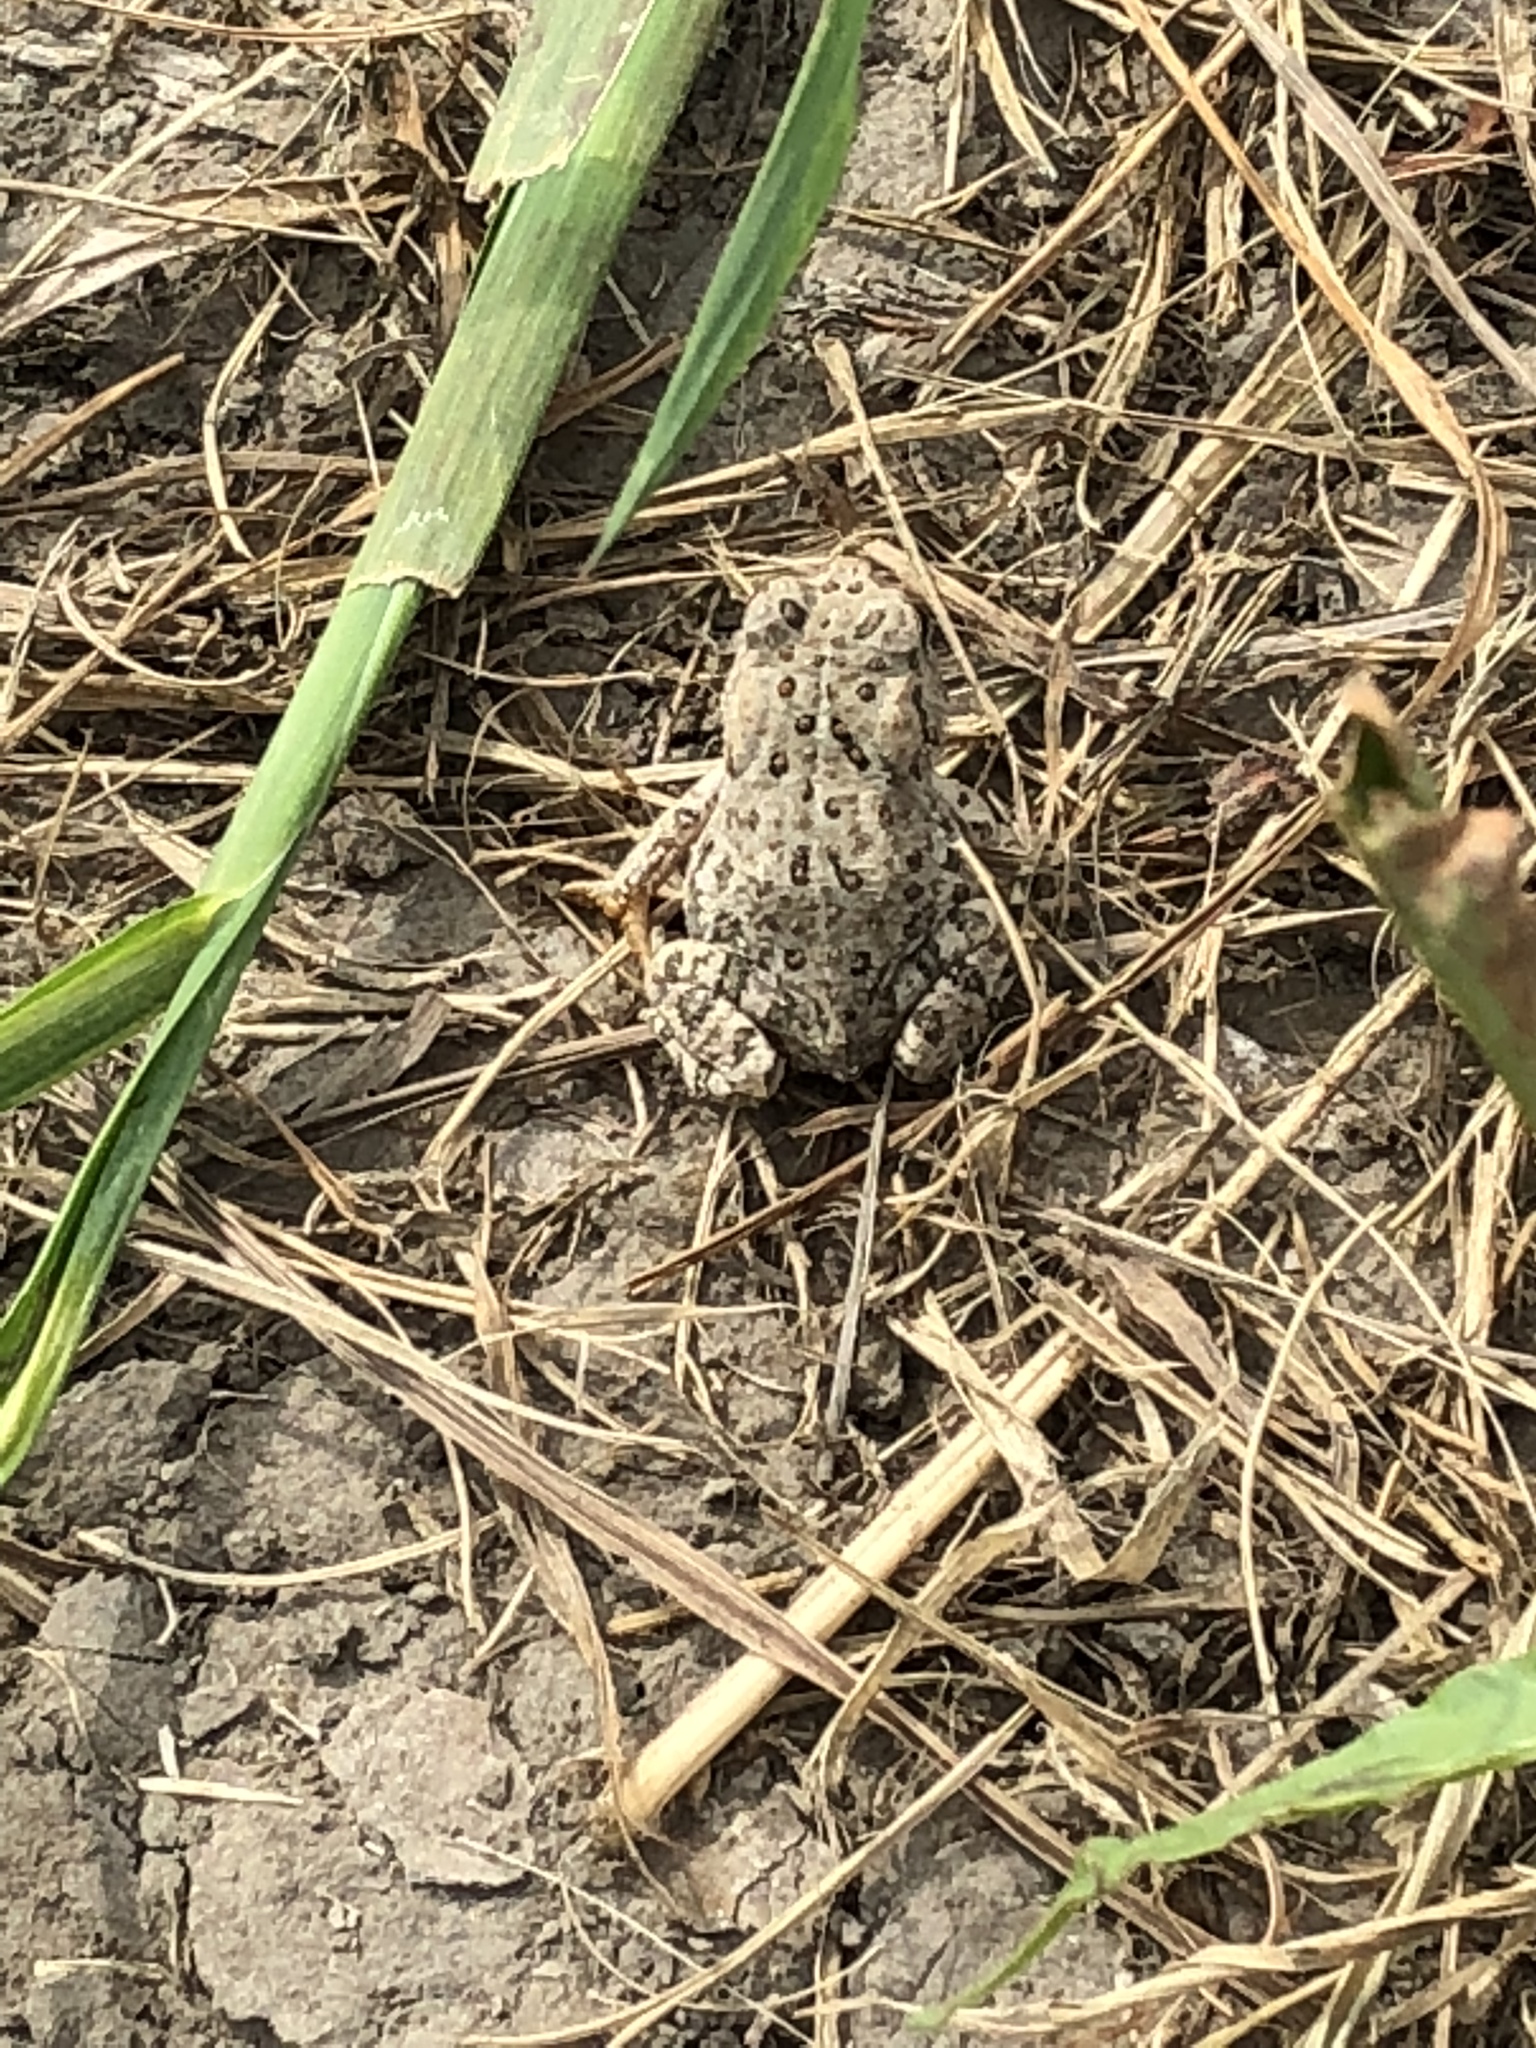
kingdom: Animalia
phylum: Chordata
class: Amphibia
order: Anura
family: Bufonidae
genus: Anaxyrus
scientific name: Anaxyrus woodhousii
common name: Woodhouse's toad
